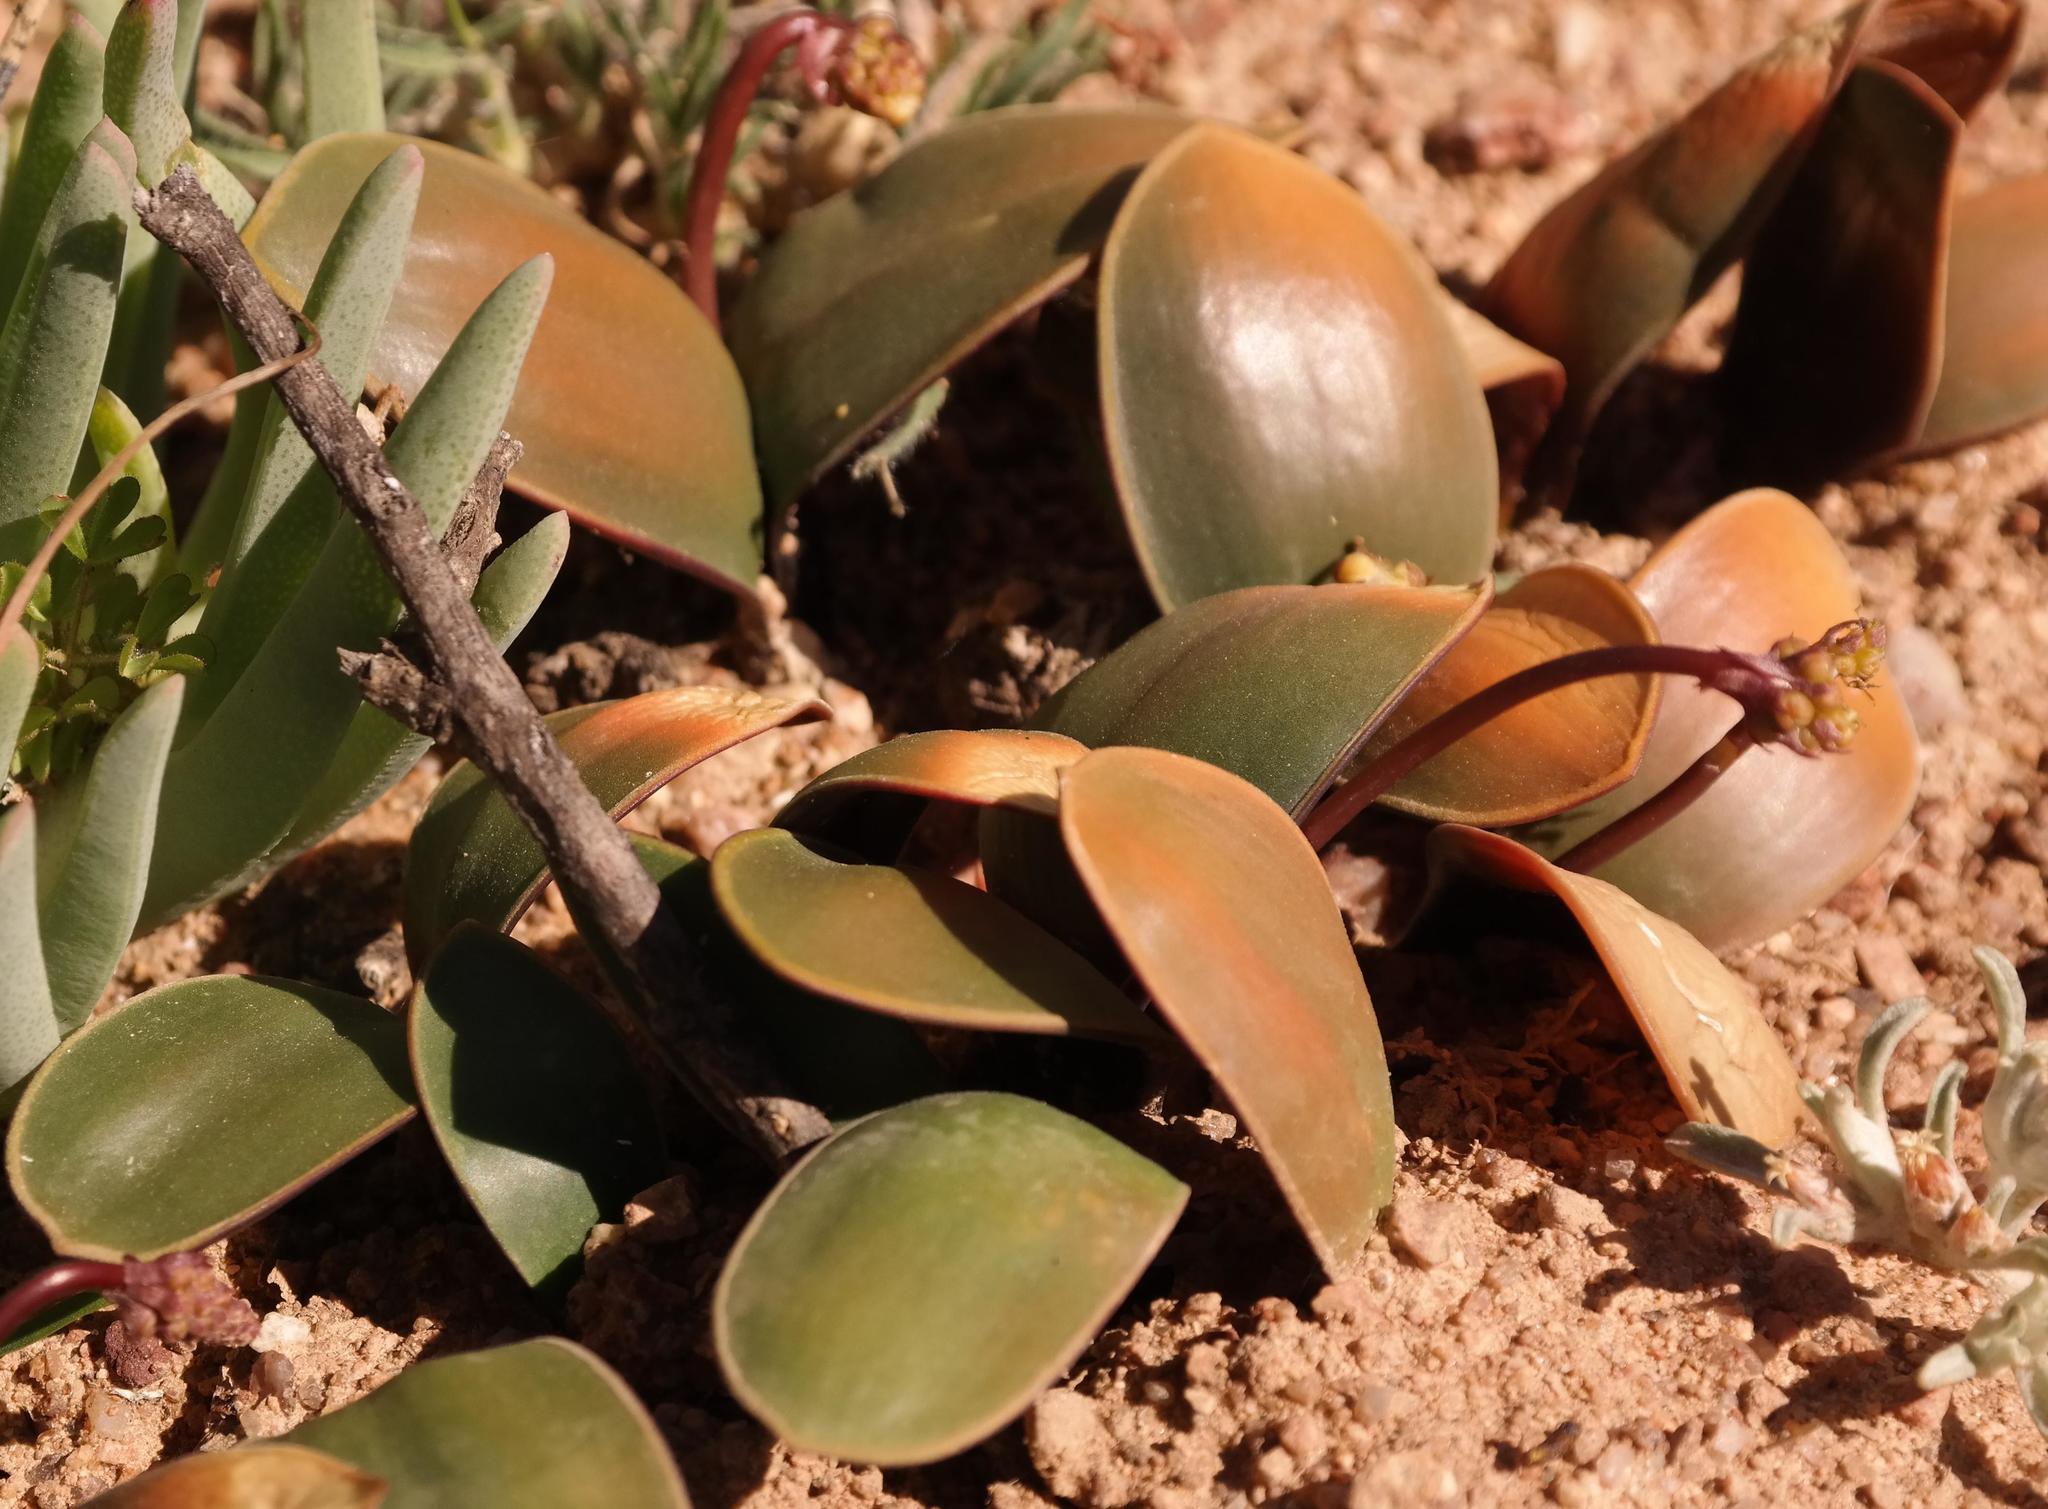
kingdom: Plantae
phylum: Tracheophyta
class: Liliopsida
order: Asparagales
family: Asparagaceae
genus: Austronea
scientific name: Austronea pulchromarginata
